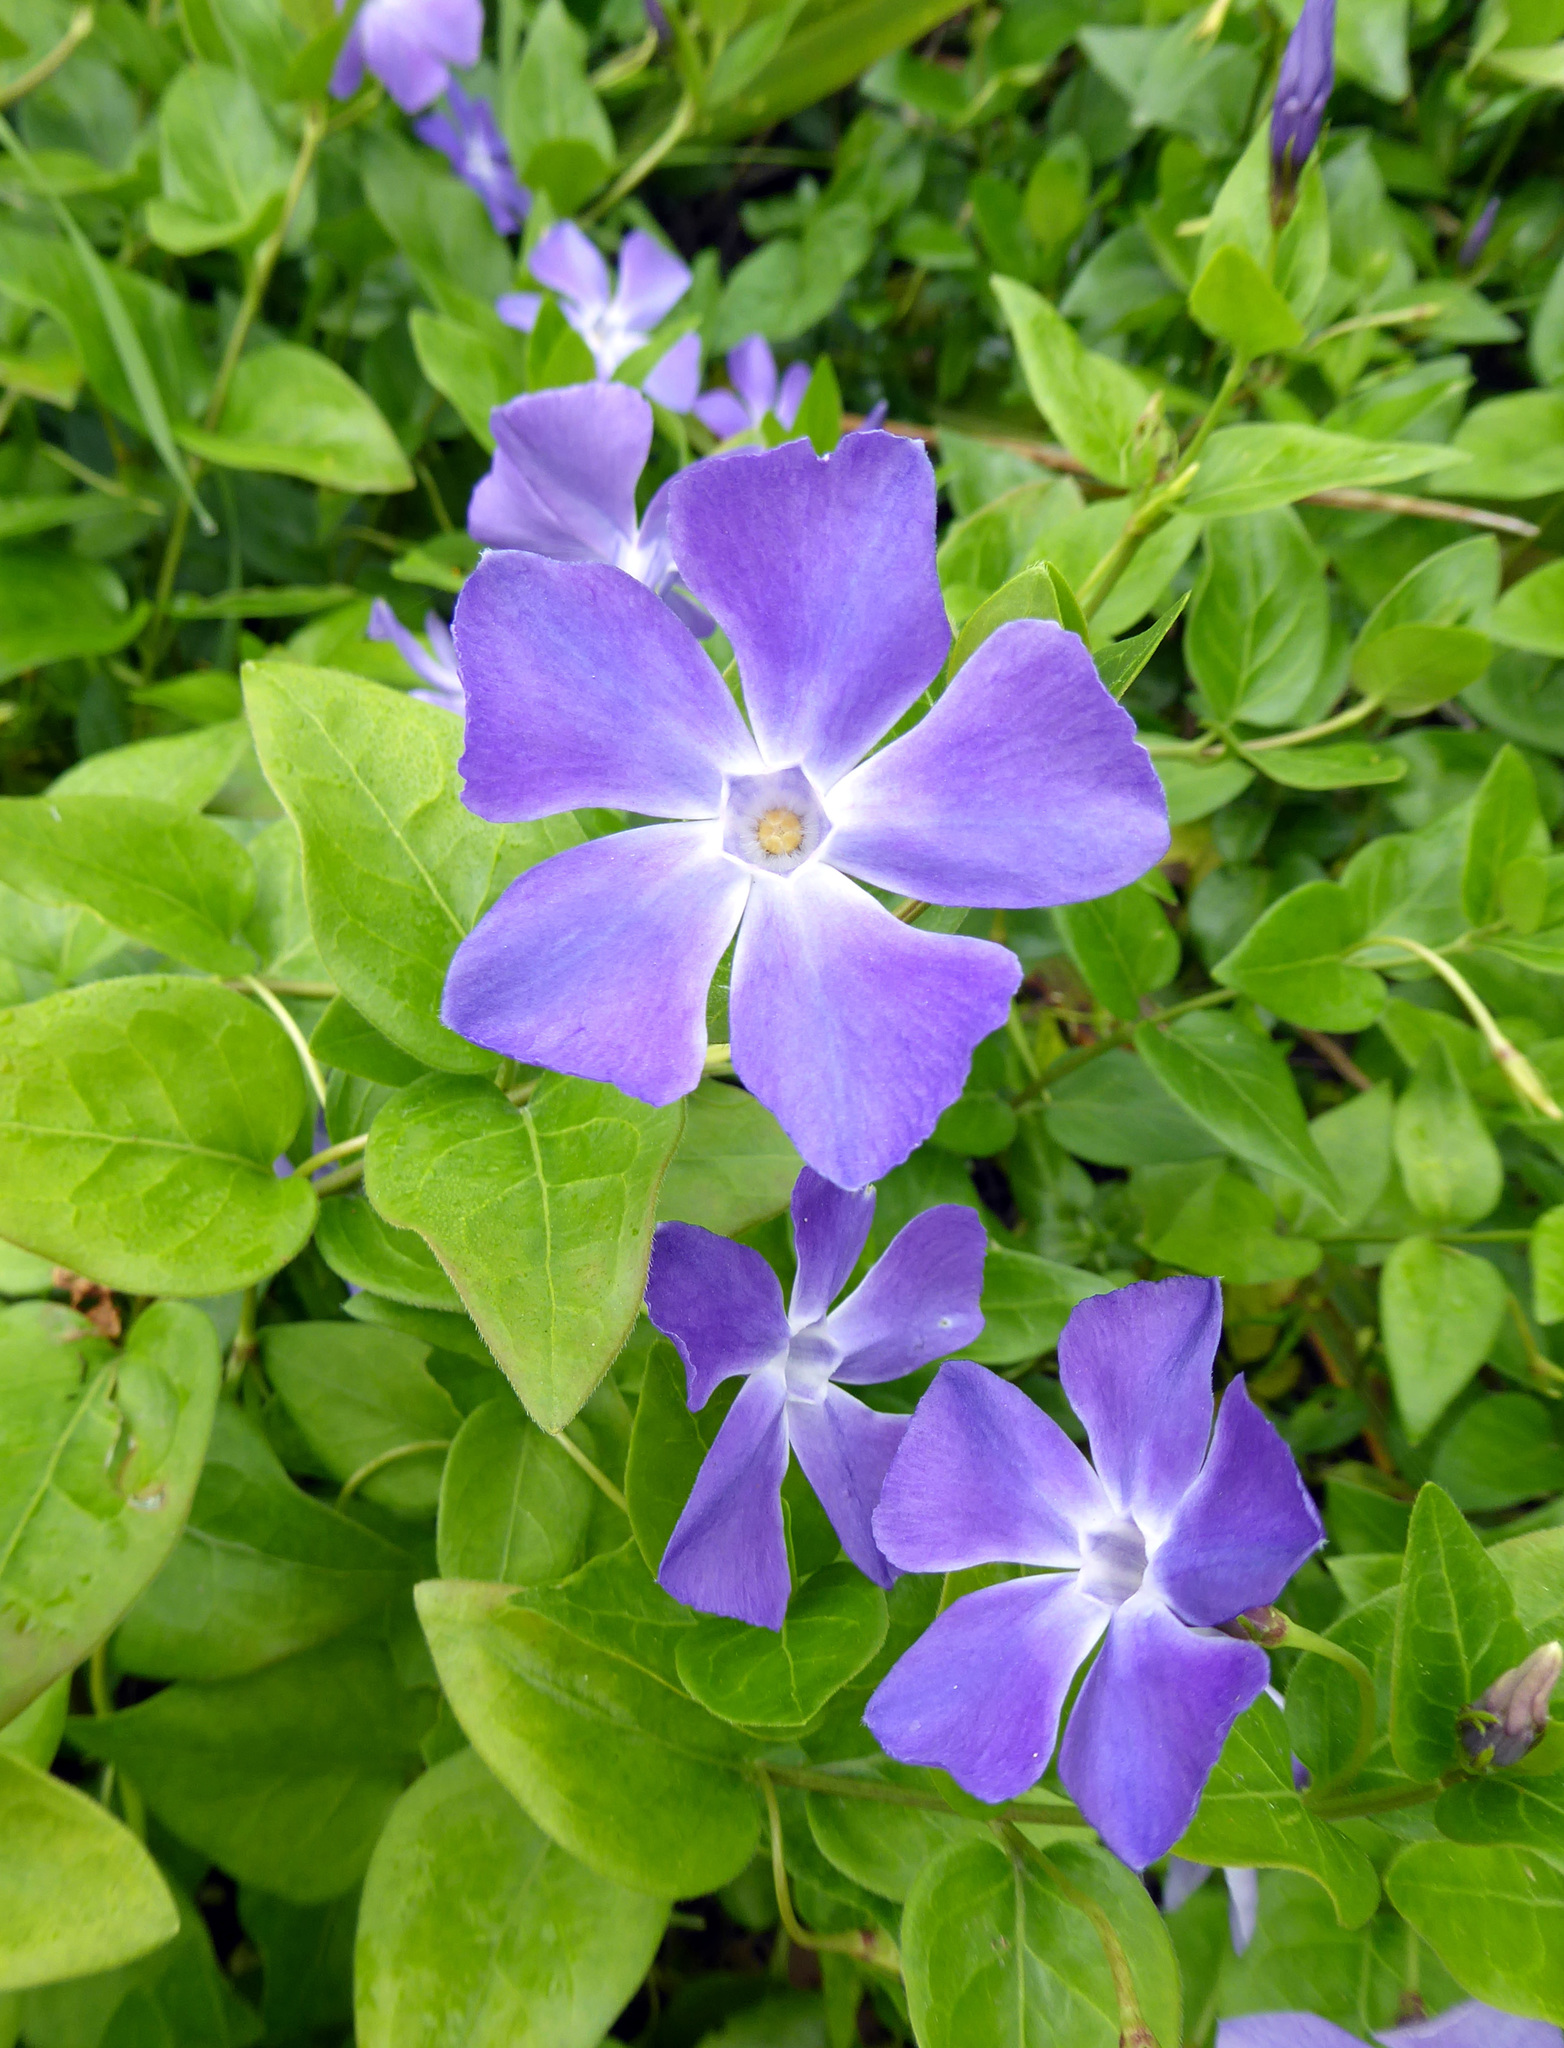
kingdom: Plantae
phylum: Tracheophyta
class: Magnoliopsida
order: Gentianales
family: Apocynaceae
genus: Vinca
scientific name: Vinca major
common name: Greater periwinkle
